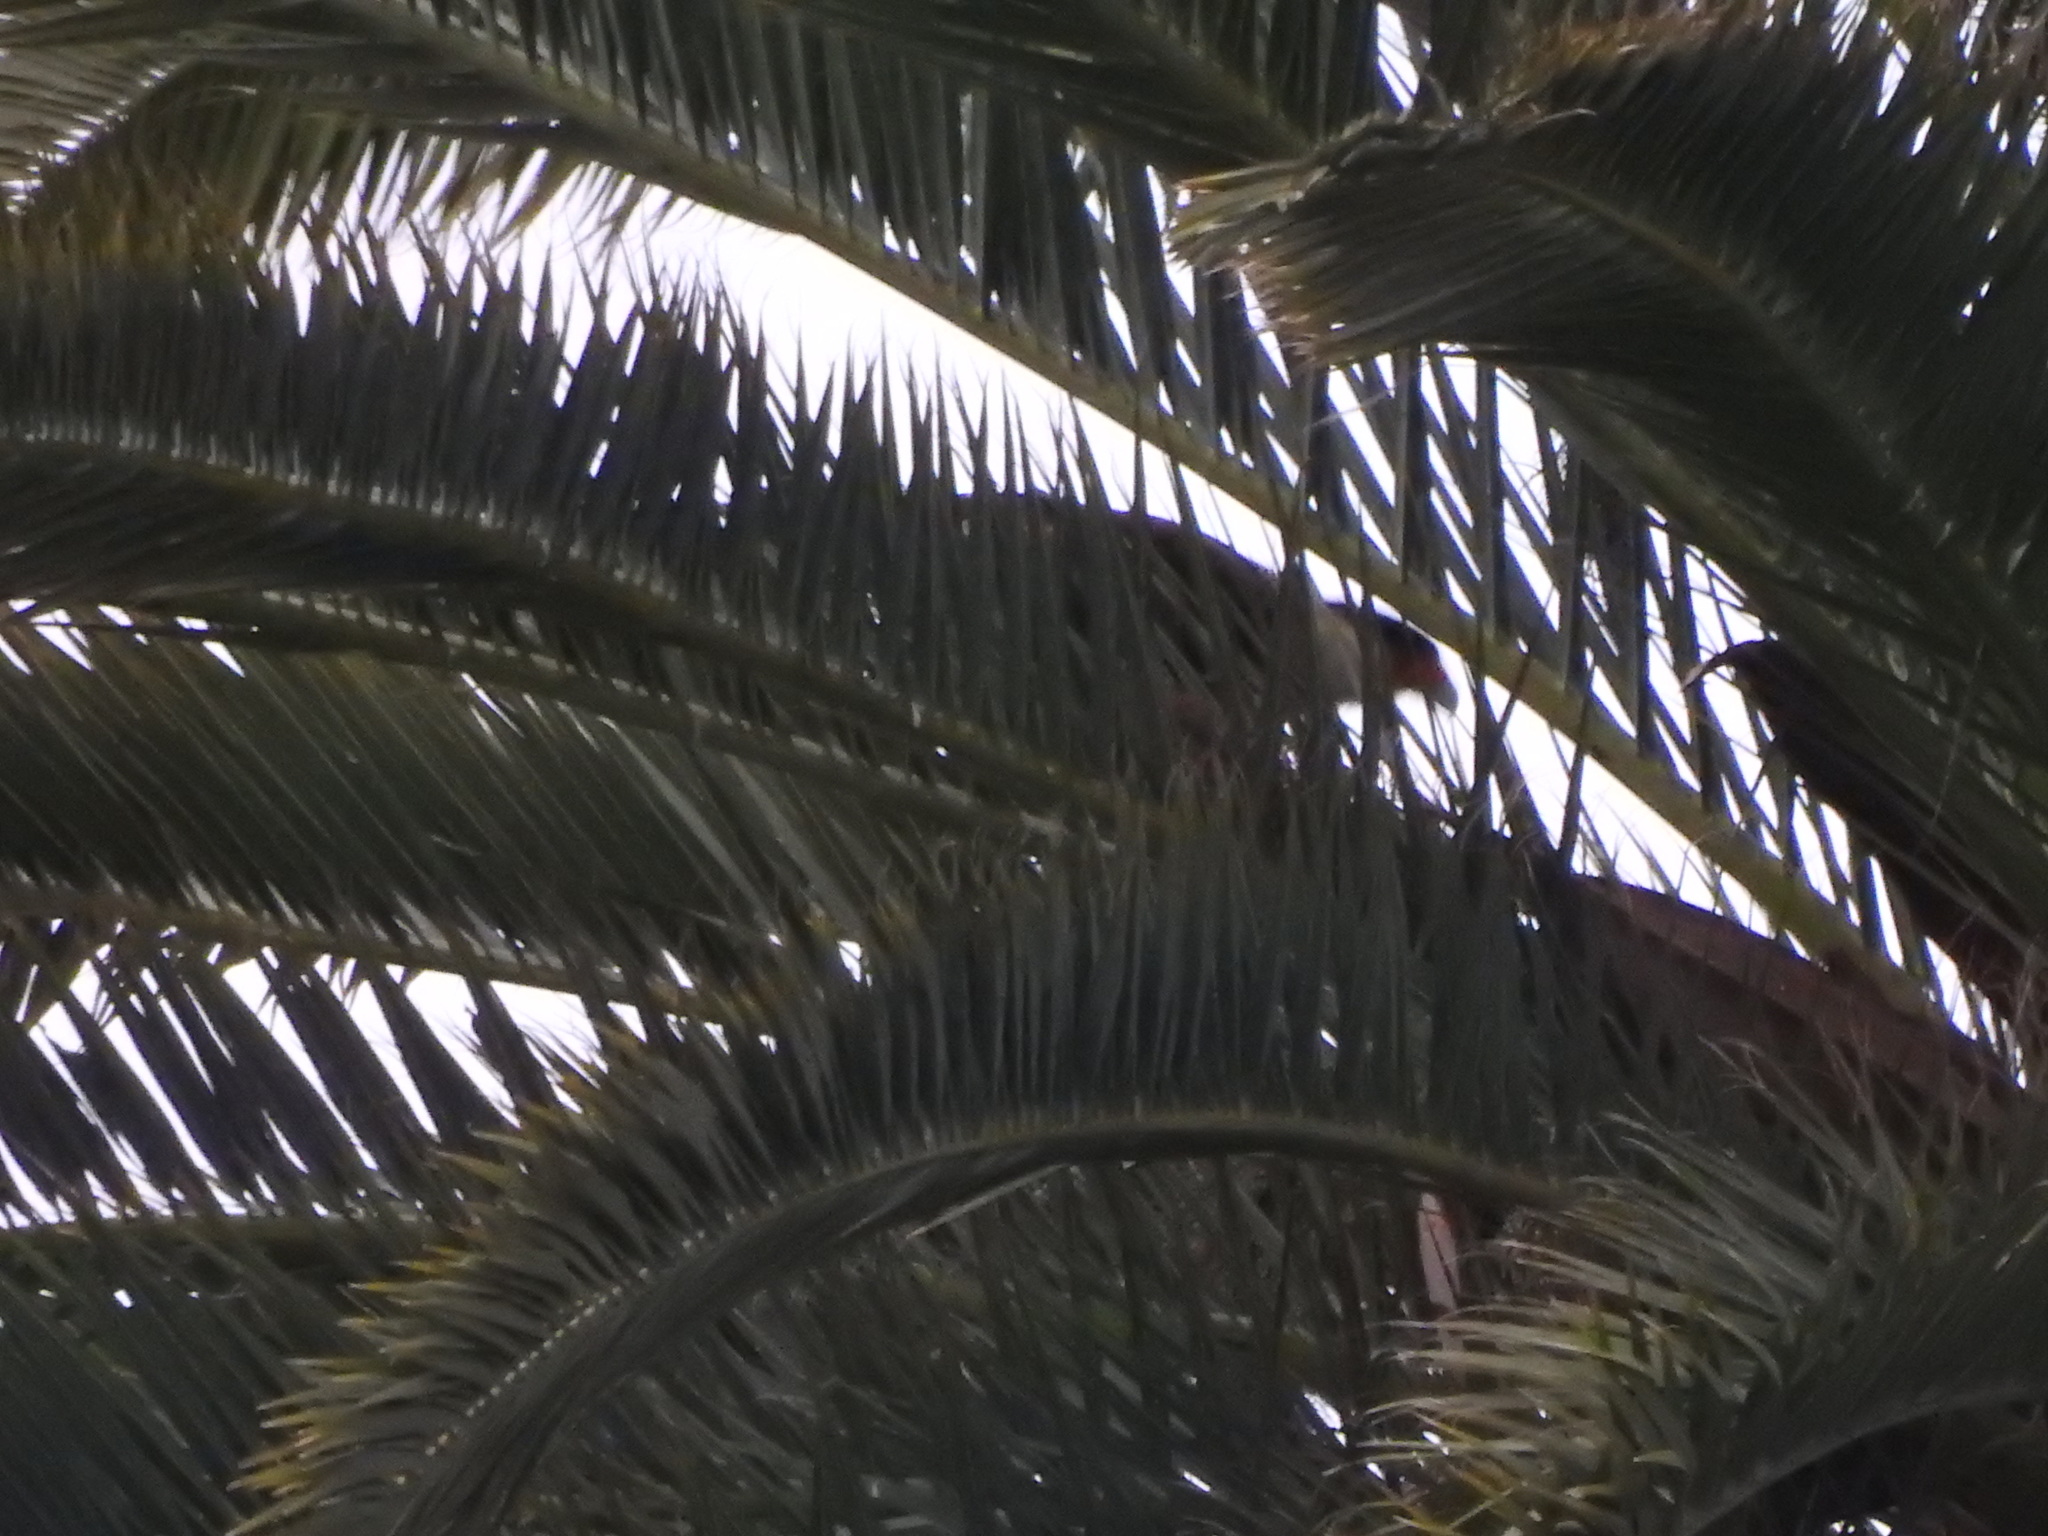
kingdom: Animalia
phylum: Chordata
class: Aves
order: Falconiformes
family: Falconidae
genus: Caracara
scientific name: Caracara plancus
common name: Southern caracara
